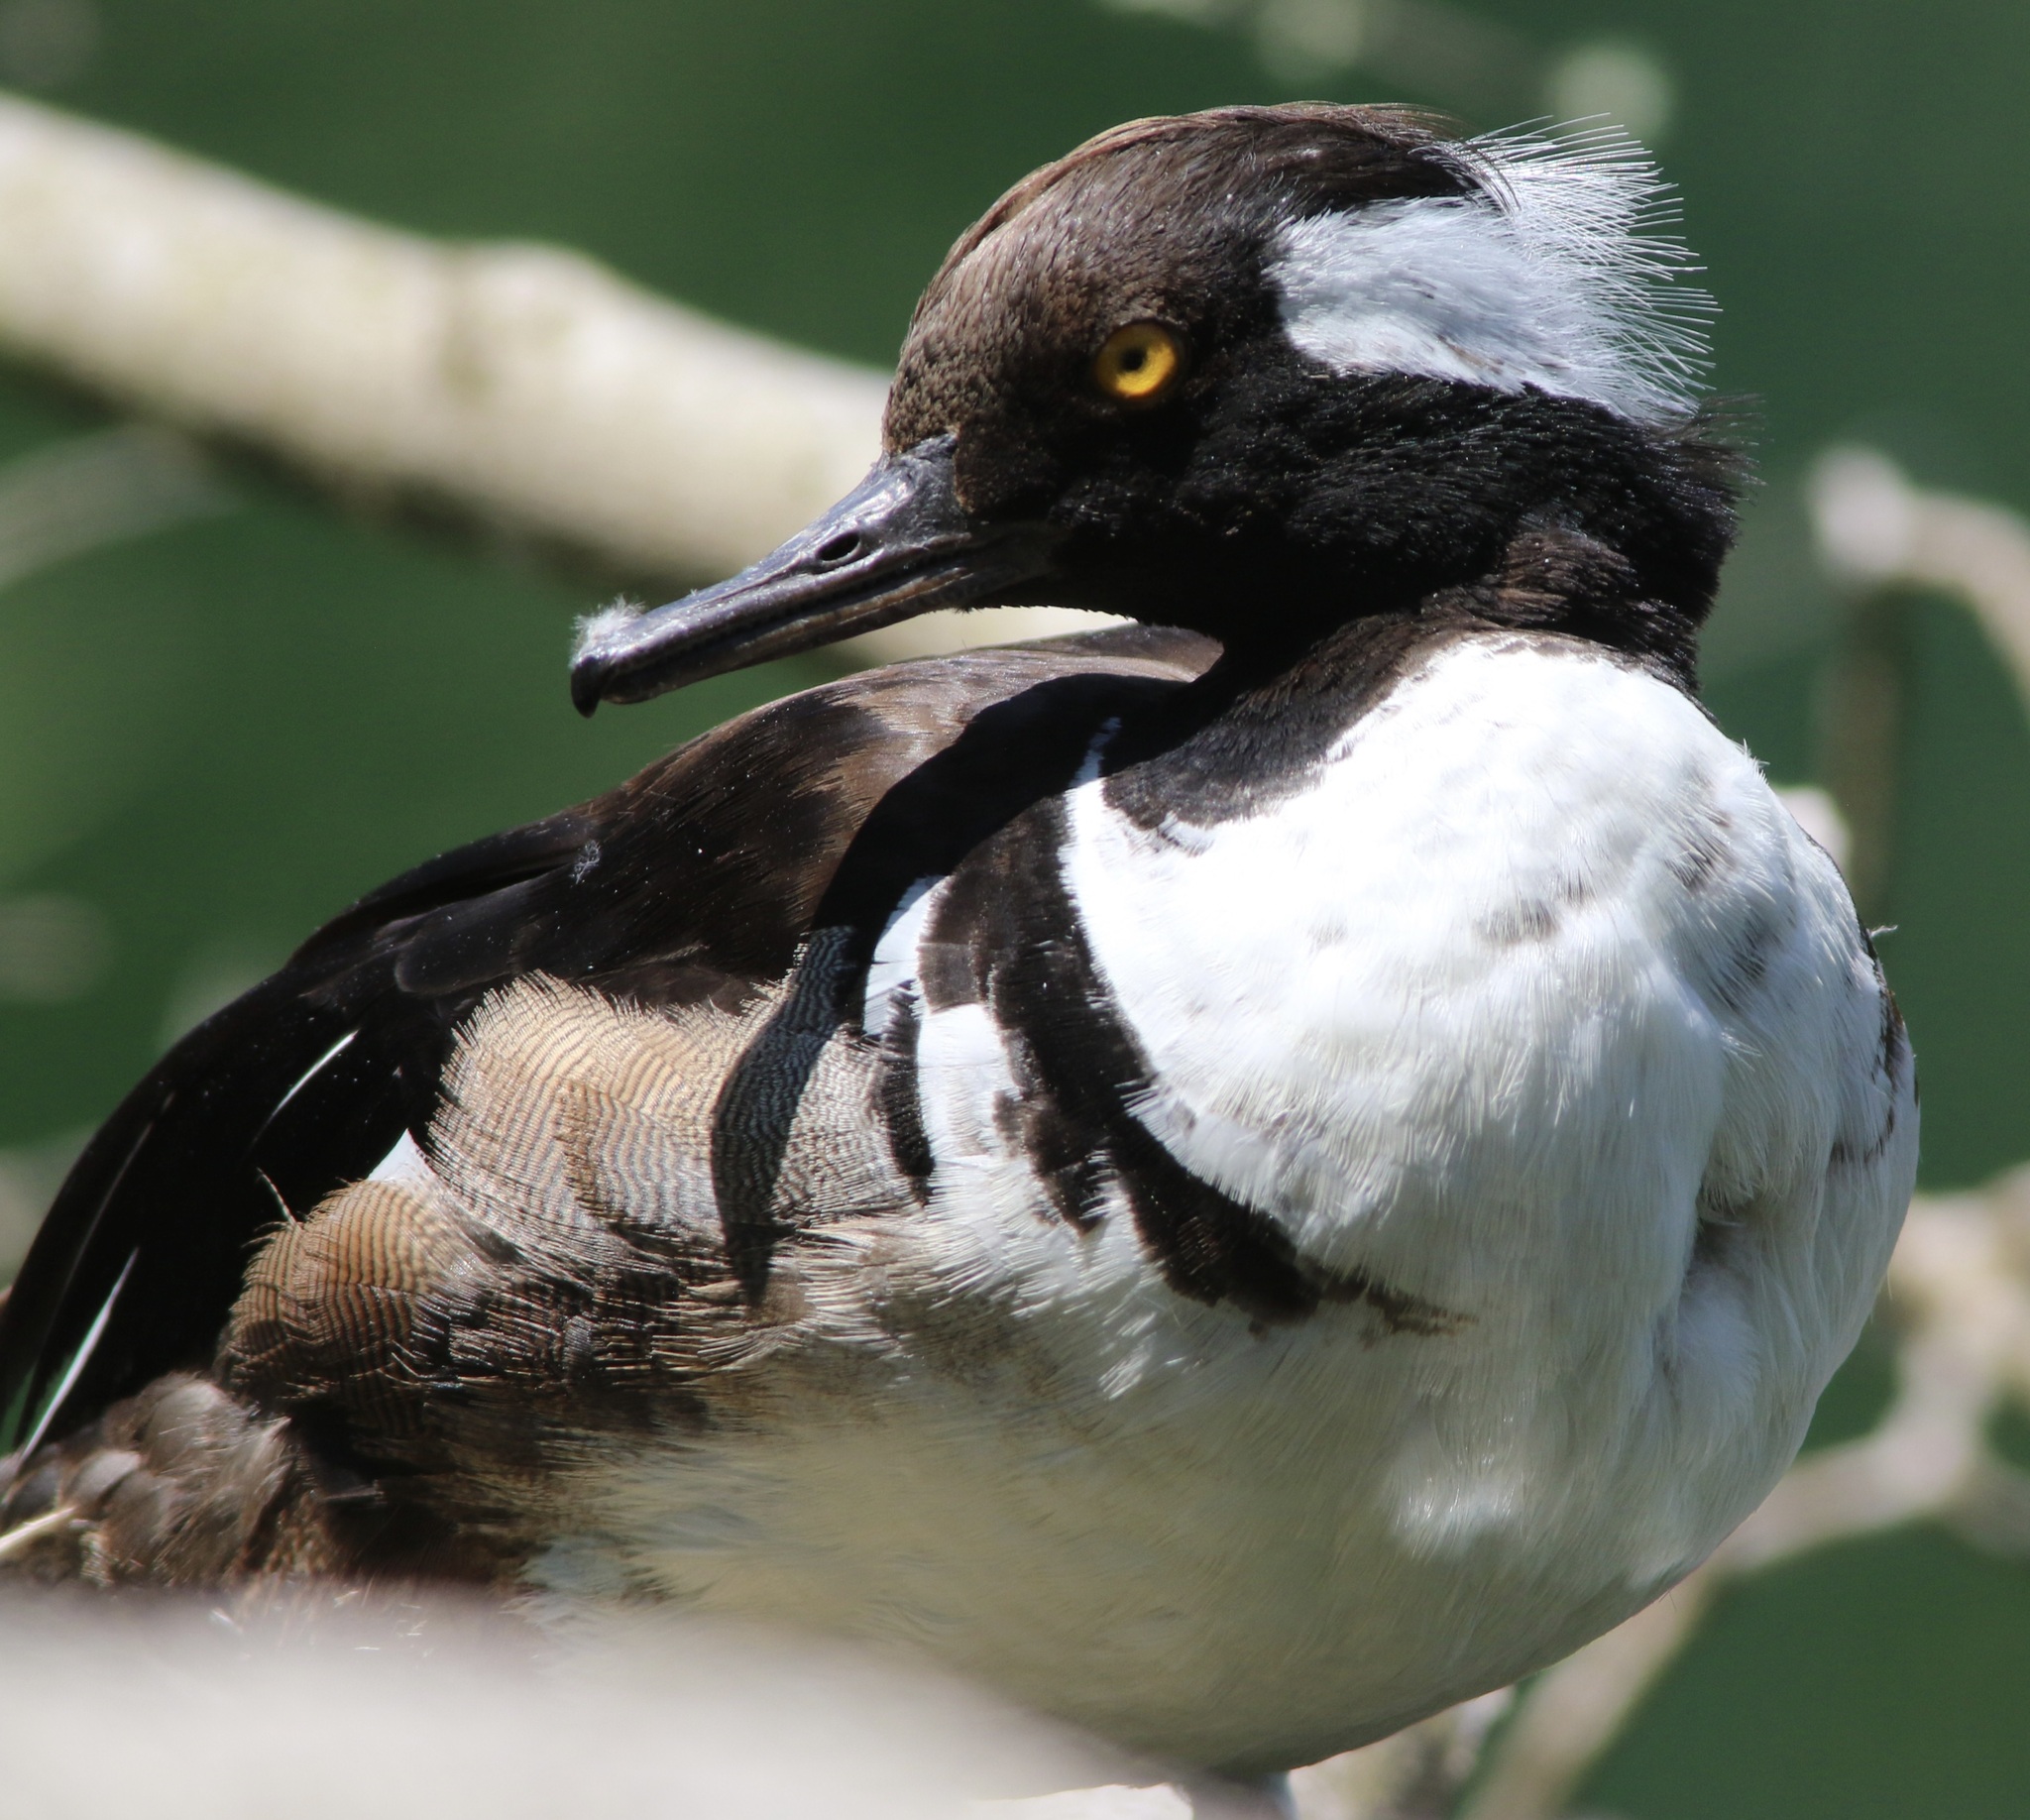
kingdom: Animalia
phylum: Chordata
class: Aves
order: Anseriformes
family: Anatidae
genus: Lophodytes
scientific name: Lophodytes cucullatus
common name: Hooded merganser
